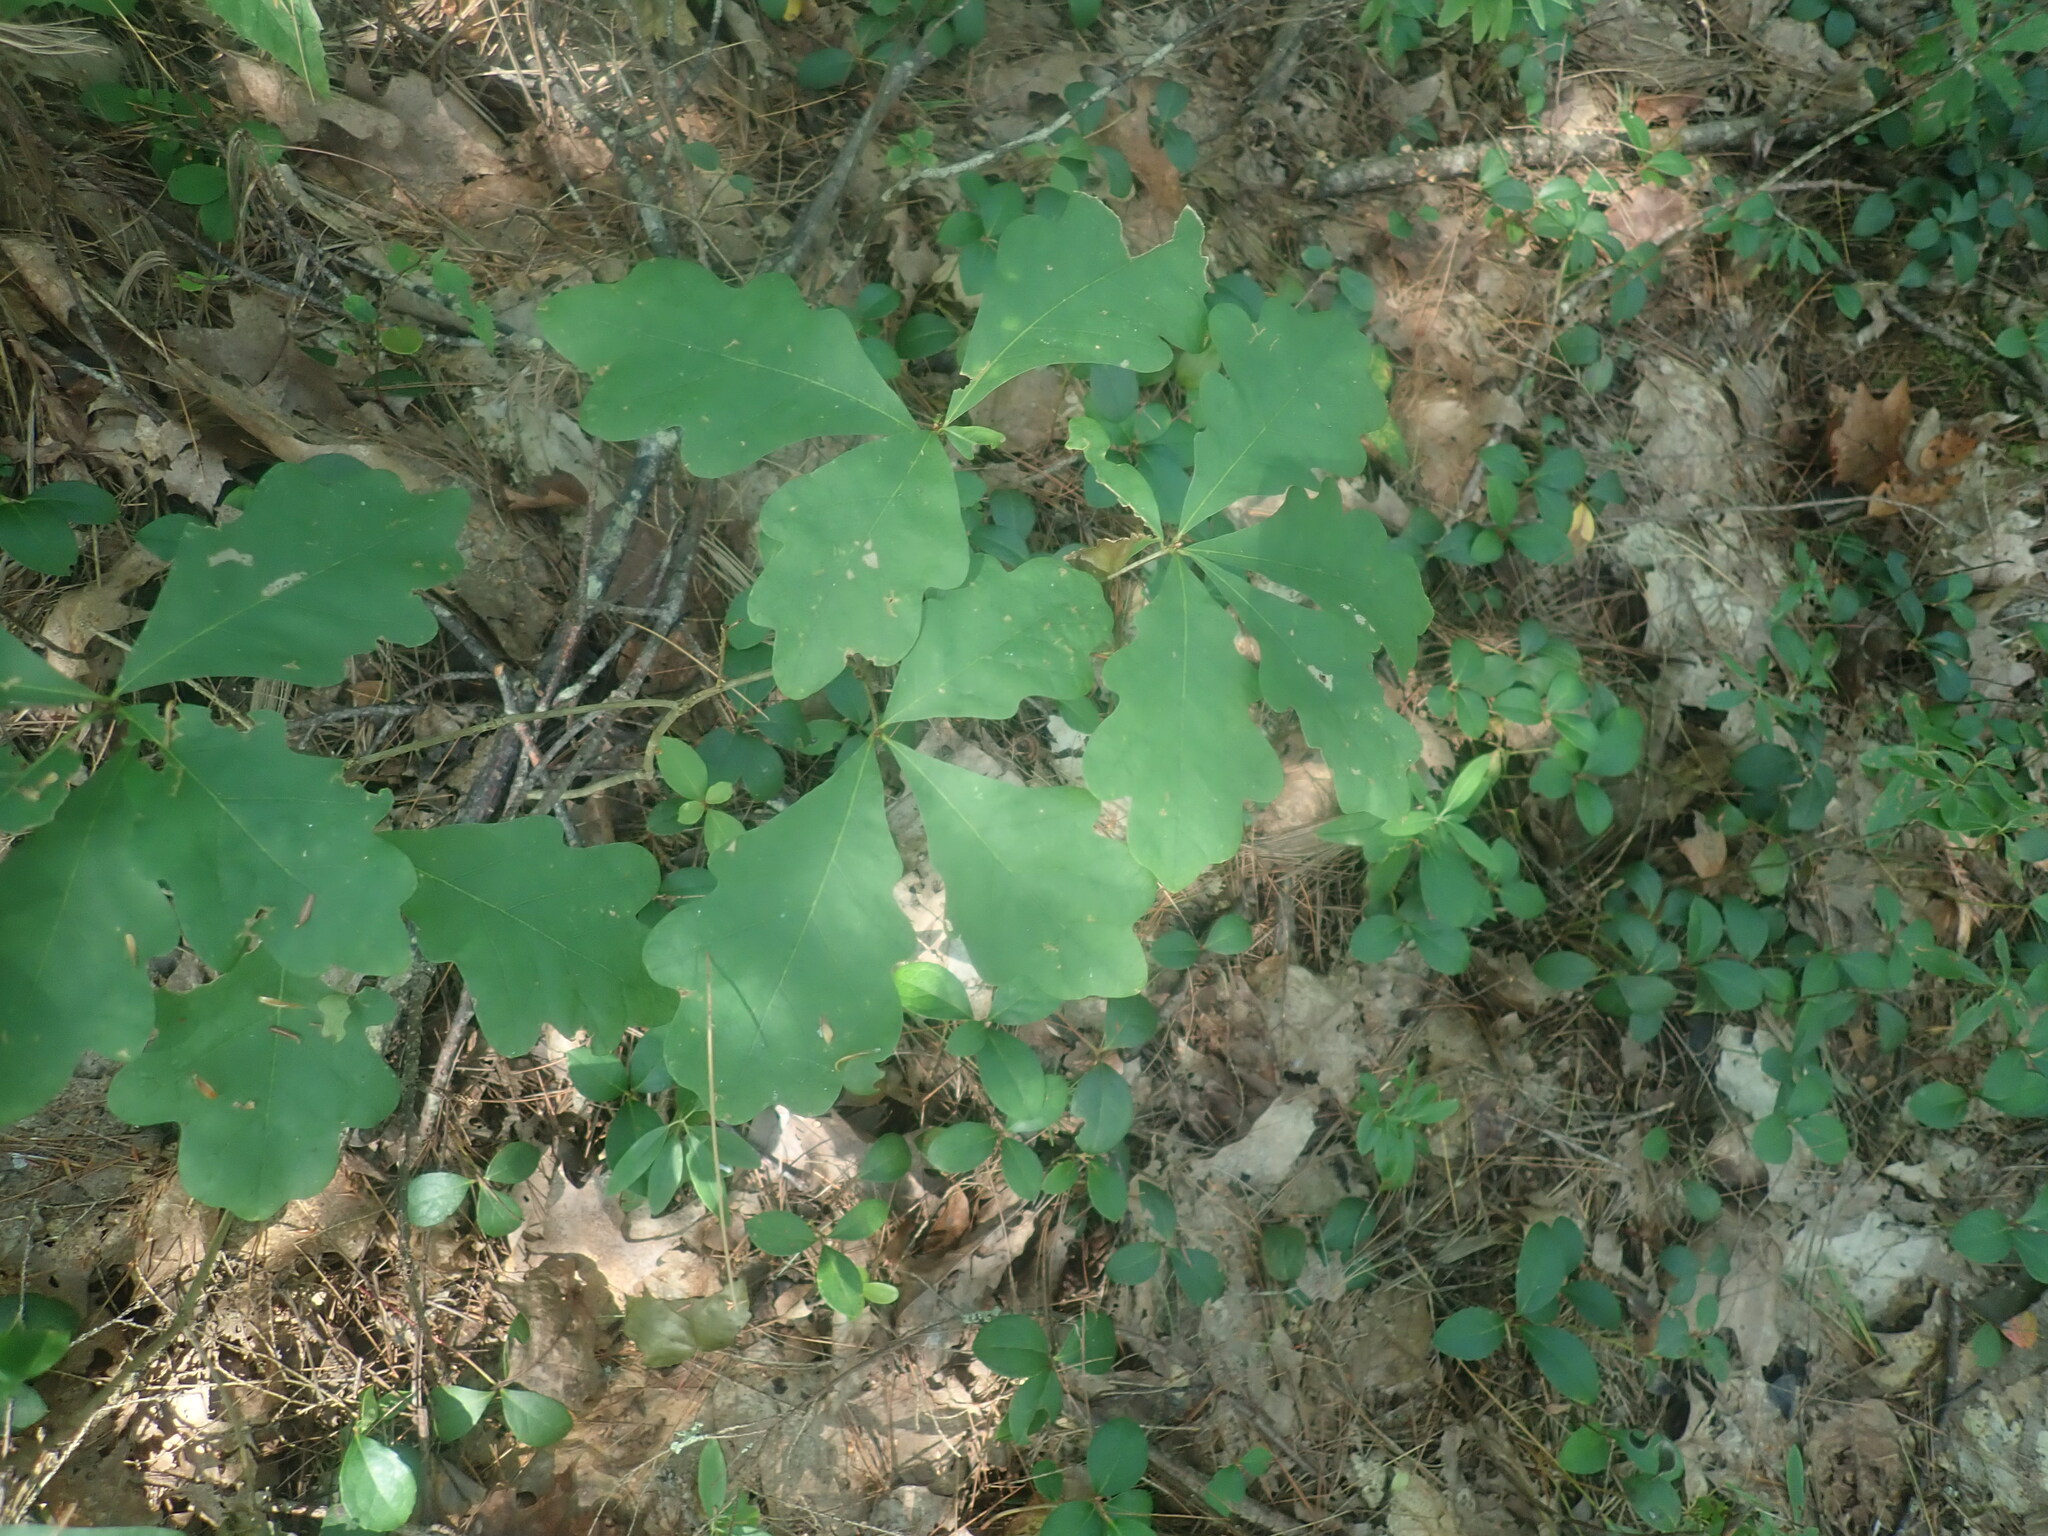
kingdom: Plantae
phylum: Tracheophyta
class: Magnoliopsida
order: Fagales
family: Fagaceae
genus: Quercus
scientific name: Quercus alba
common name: White oak
